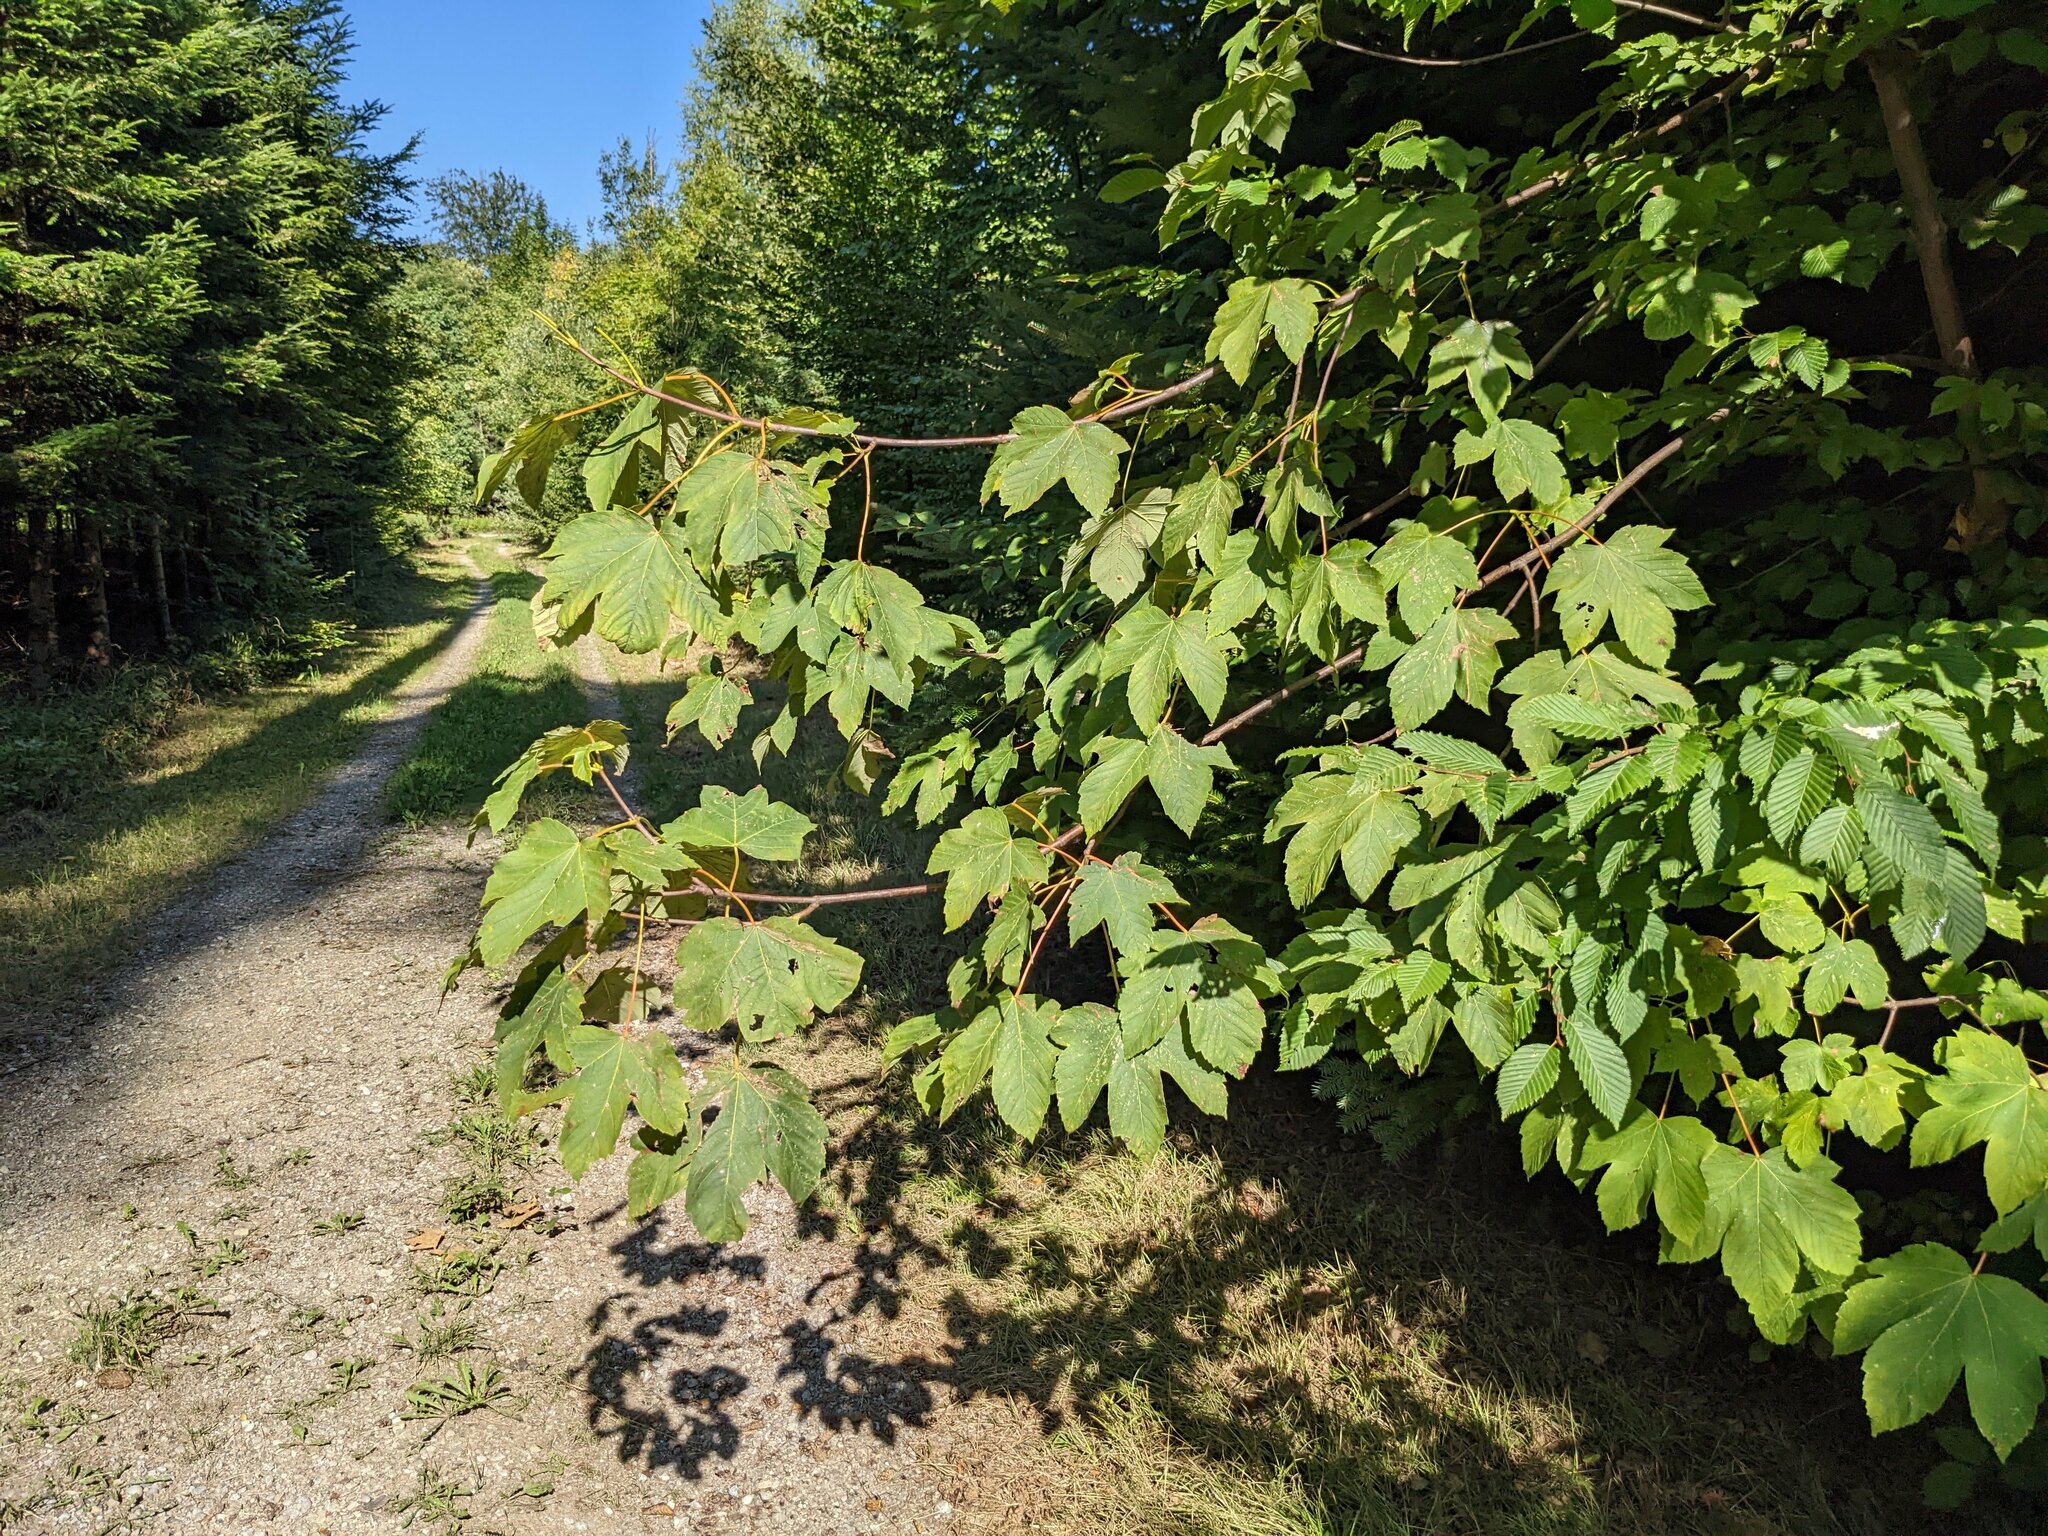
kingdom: Plantae
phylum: Tracheophyta
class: Magnoliopsida
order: Sapindales
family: Sapindaceae
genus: Acer
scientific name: Acer pseudoplatanus
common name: Sycamore
